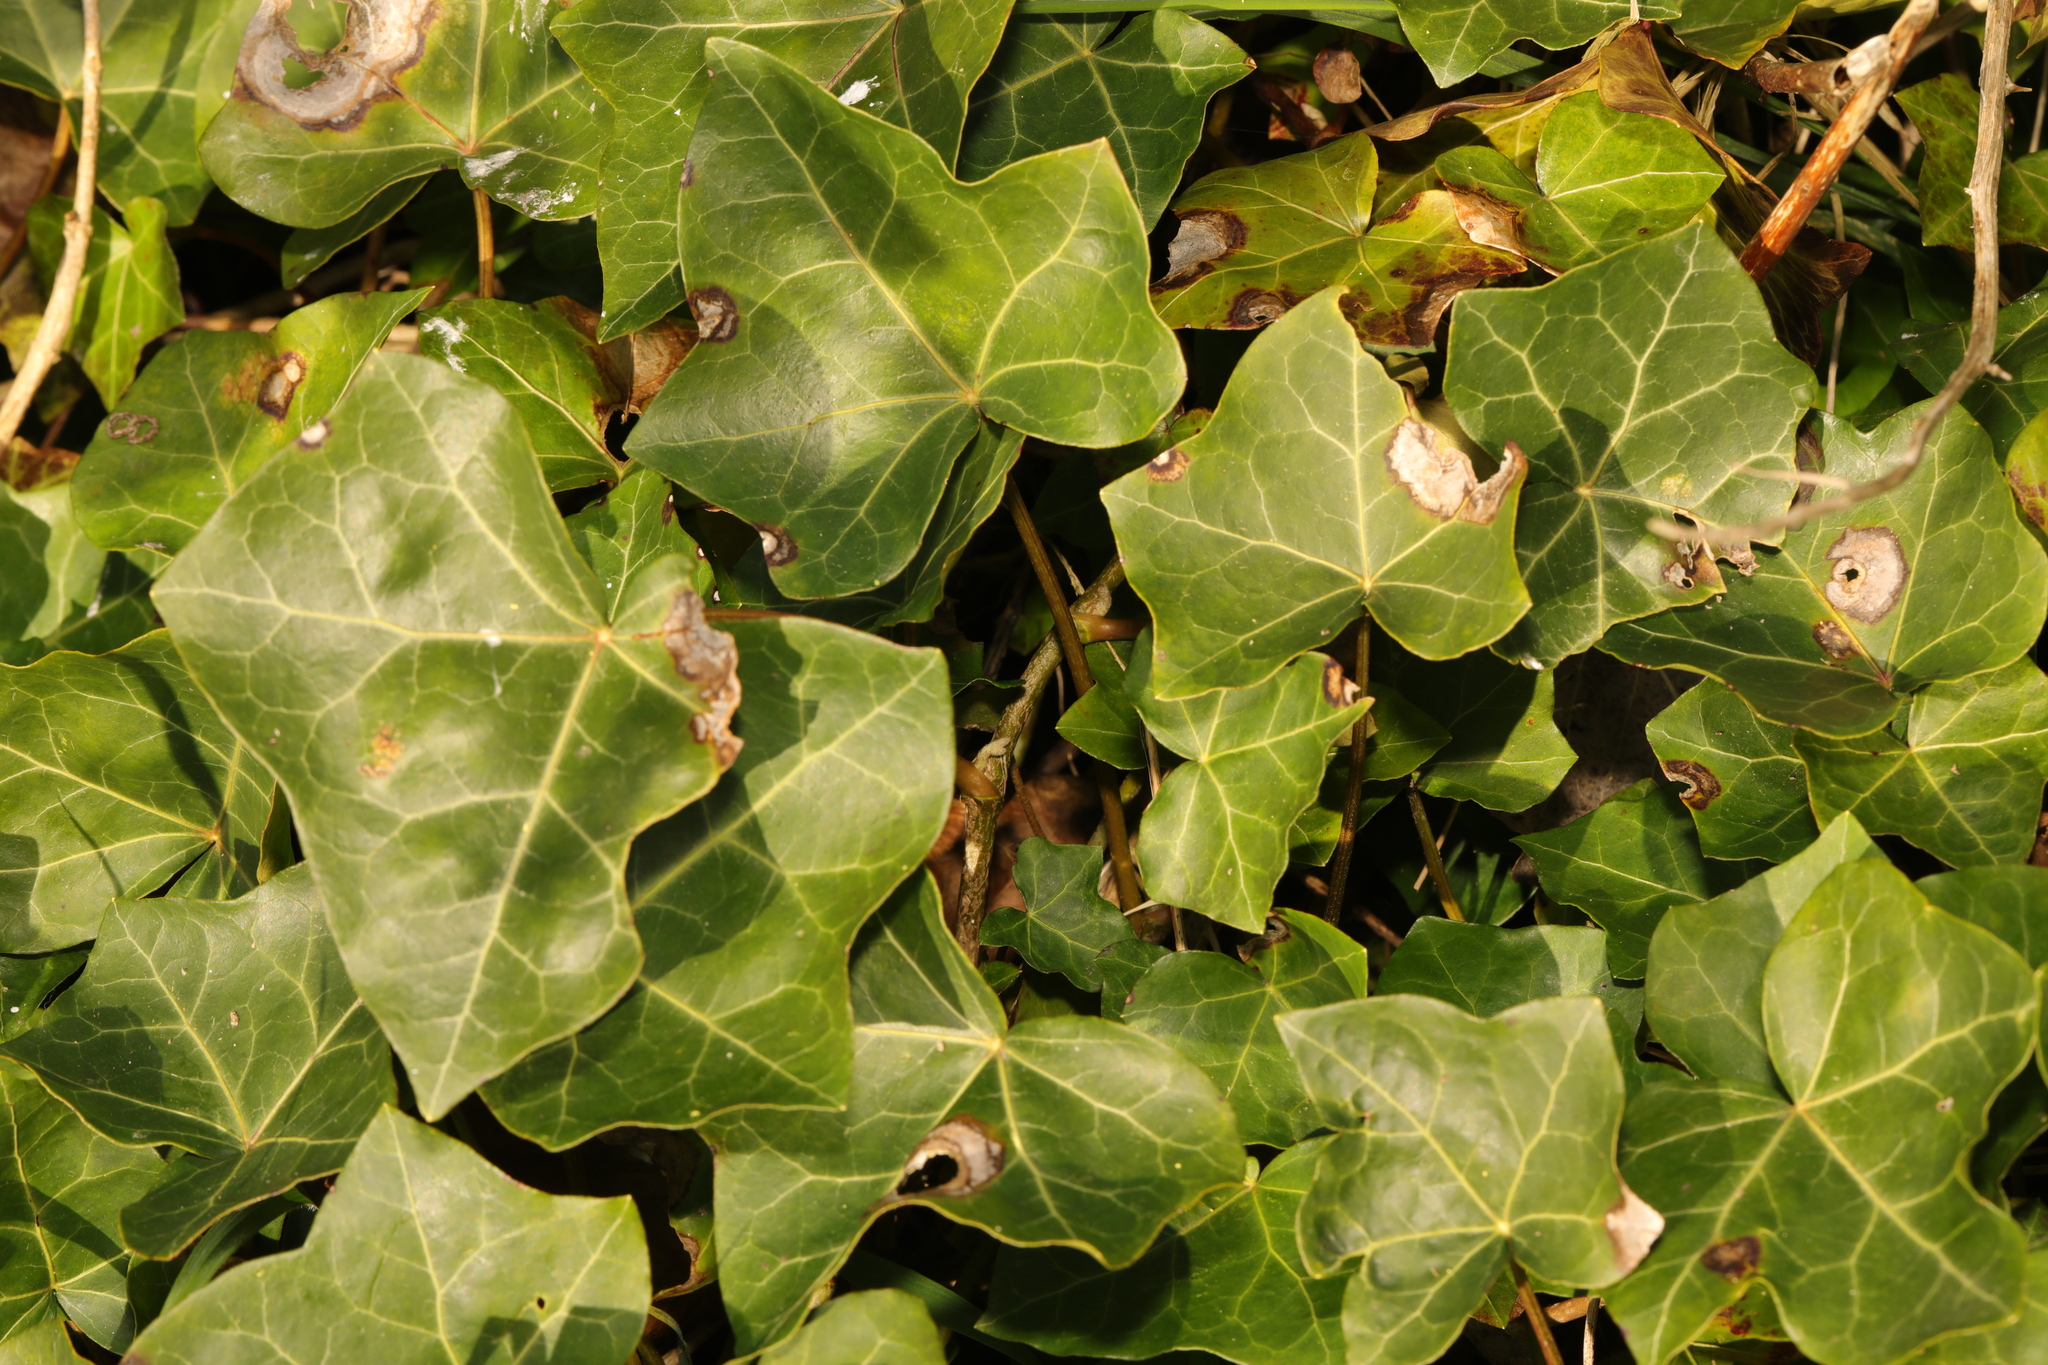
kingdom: Plantae
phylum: Tracheophyta
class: Magnoliopsida
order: Apiales
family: Araliaceae
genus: Hedera
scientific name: Hedera helix
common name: Ivy
